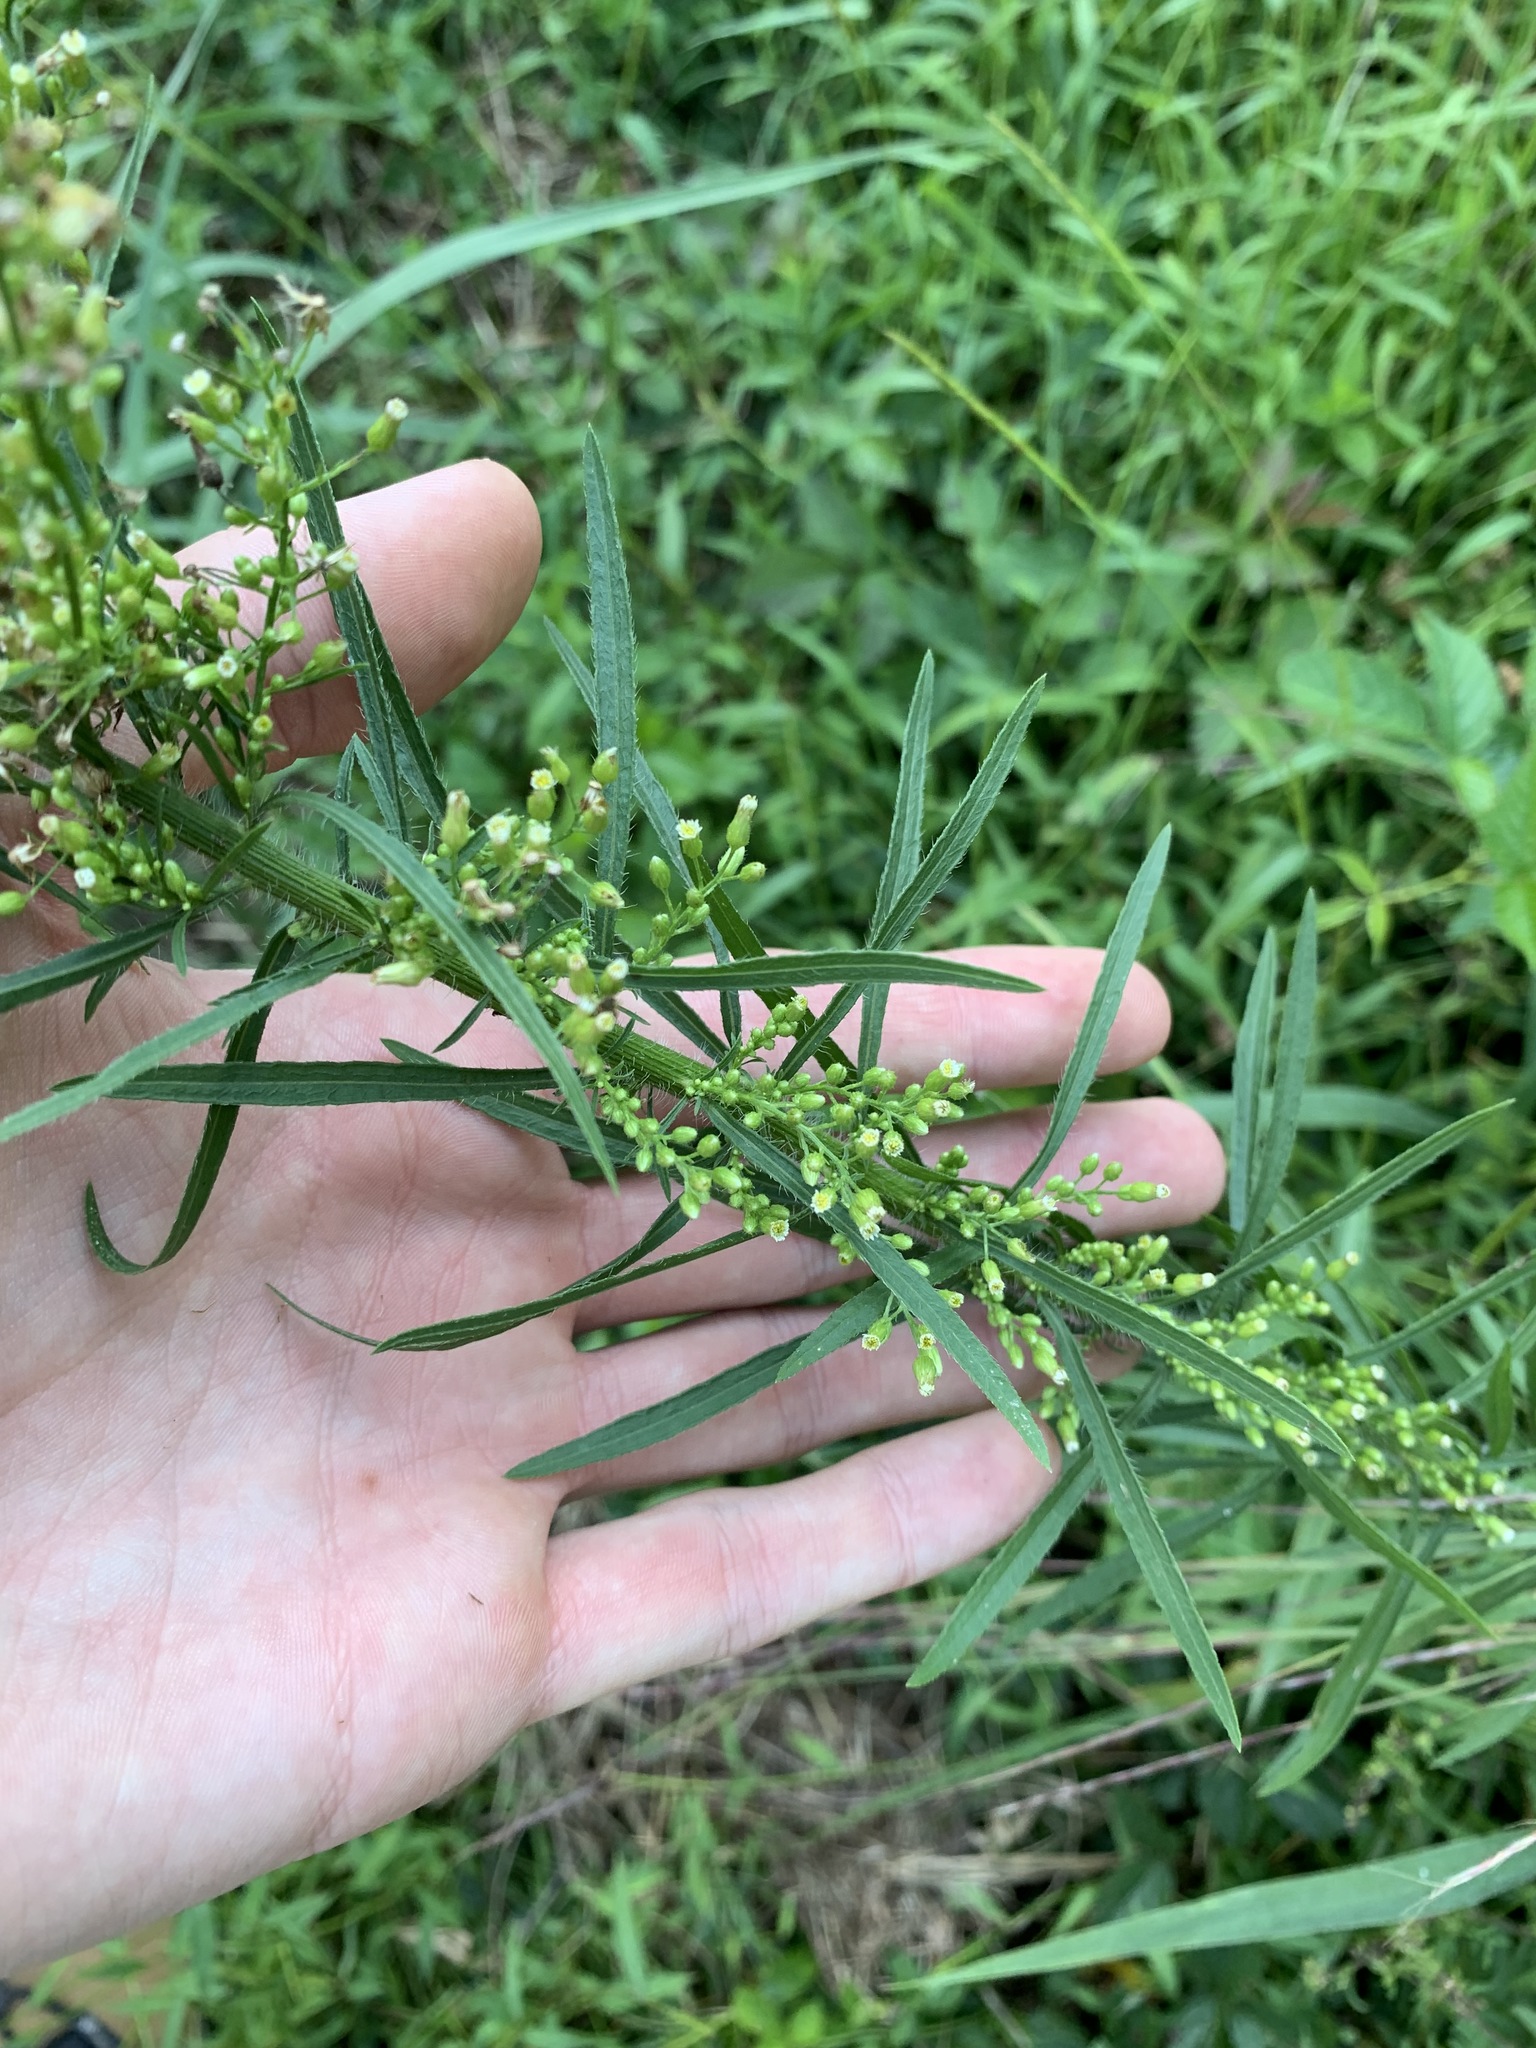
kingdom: Plantae
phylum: Tracheophyta
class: Magnoliopsida
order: Asterales
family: Asteraceae
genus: Erigeron
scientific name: Erigeron canadensis
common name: Canadian fleabane
